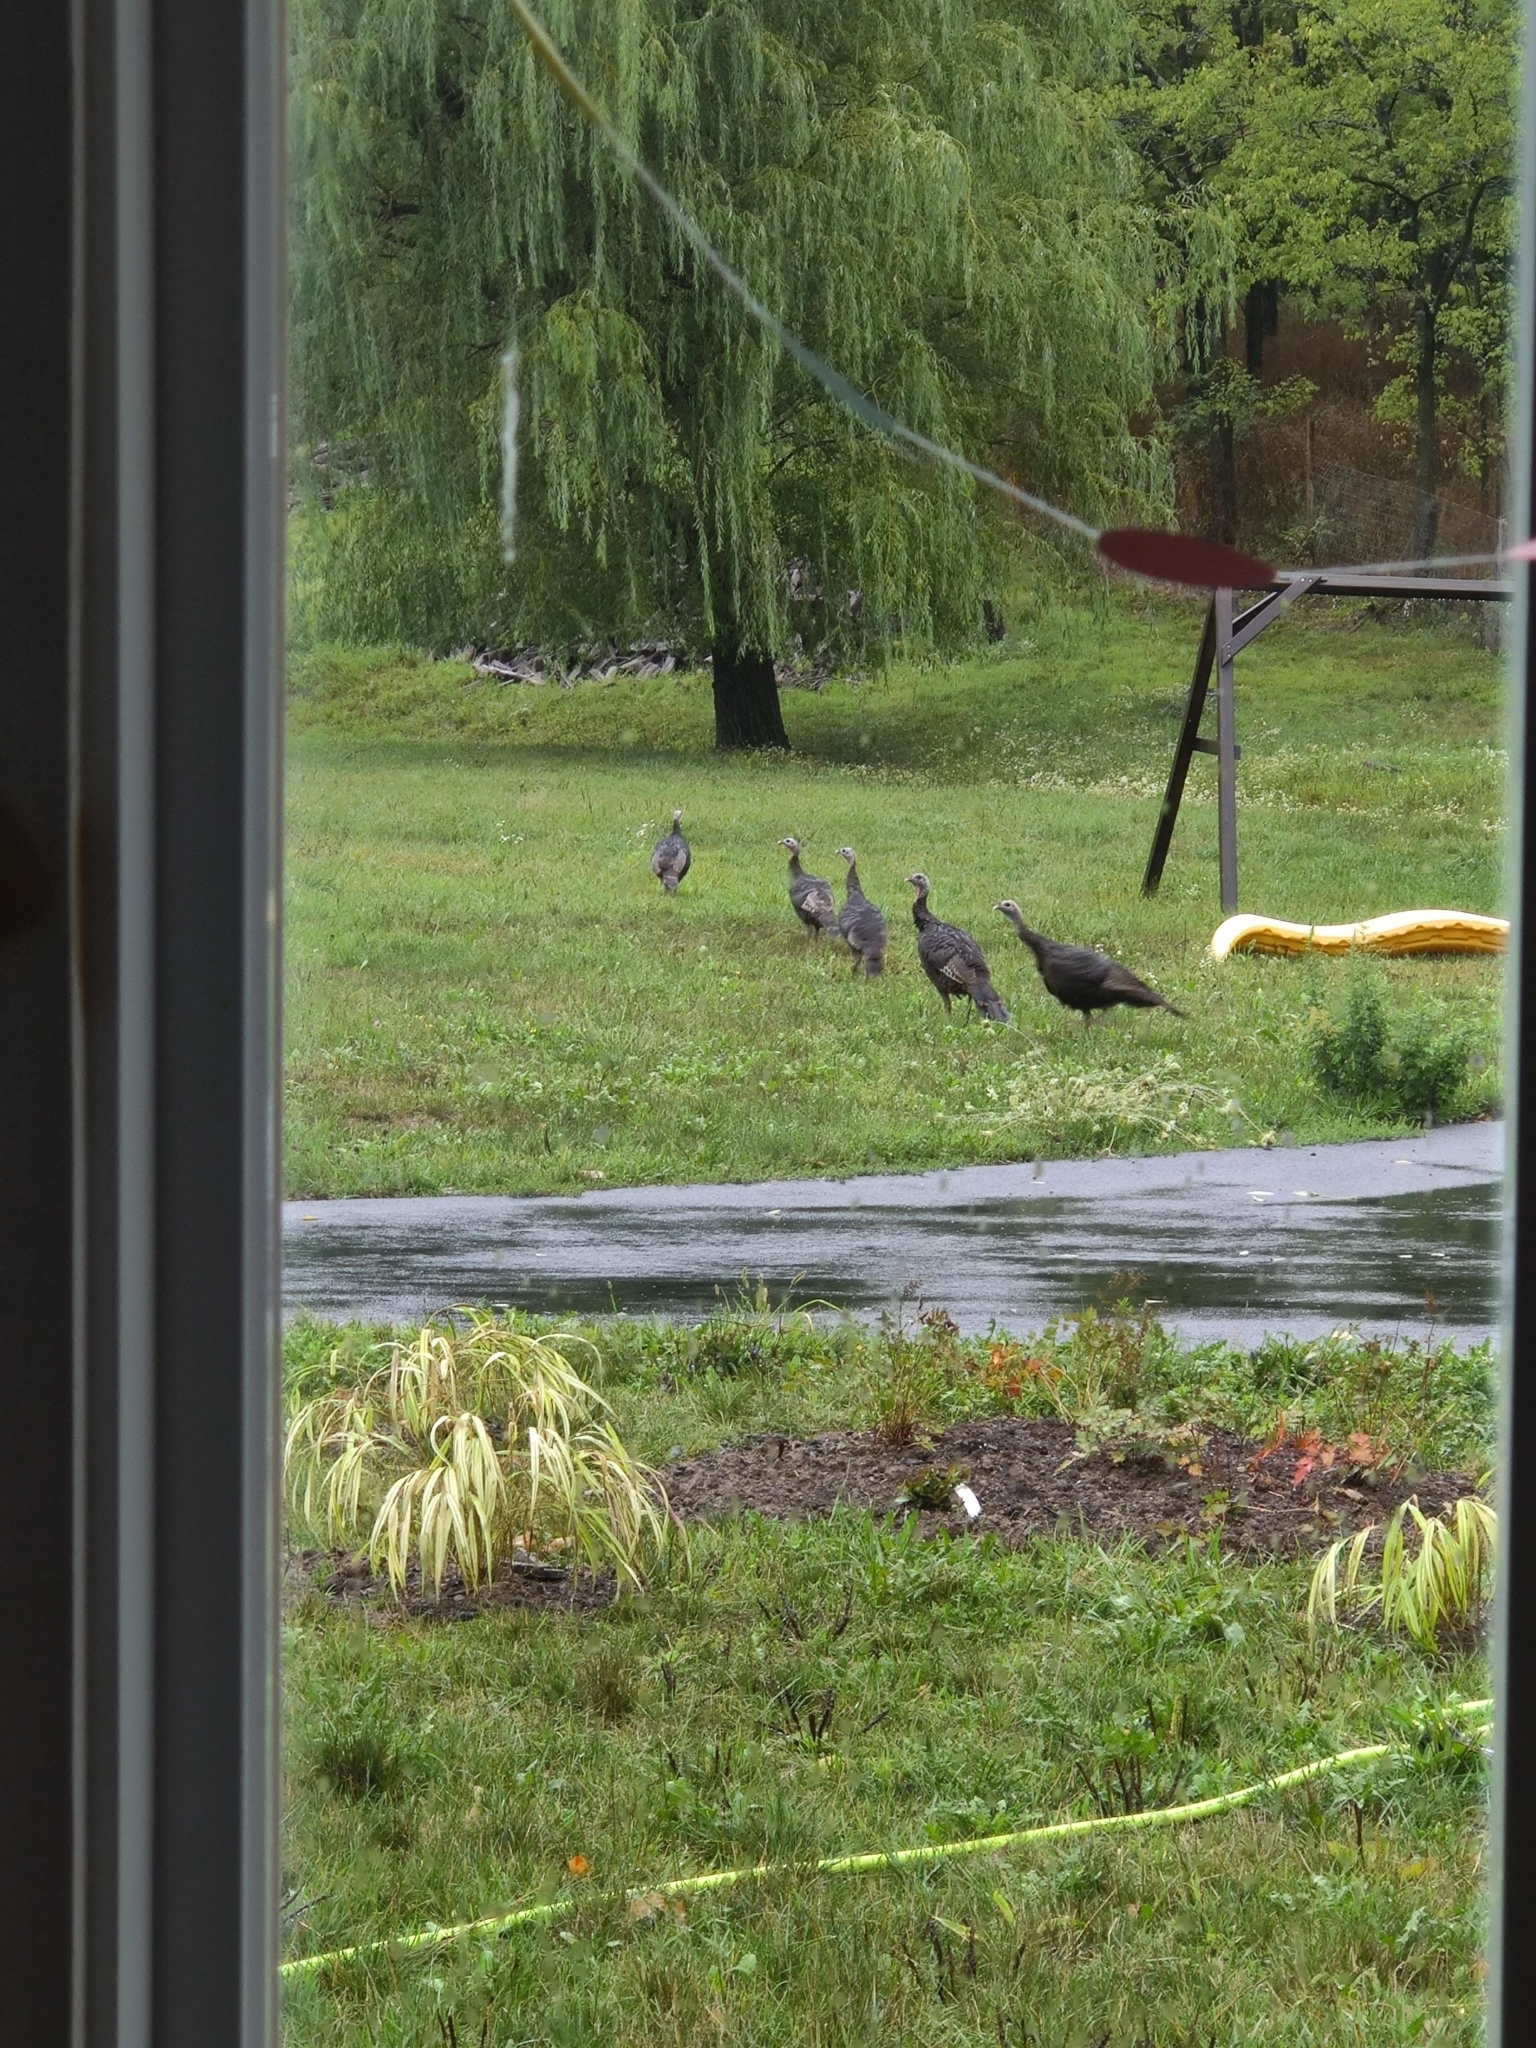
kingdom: Animalia
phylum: Chordata
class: Aves
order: Galliformes
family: Phasianidae
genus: Meleagris
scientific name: Meleagris gallopavo
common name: Wild turkey
